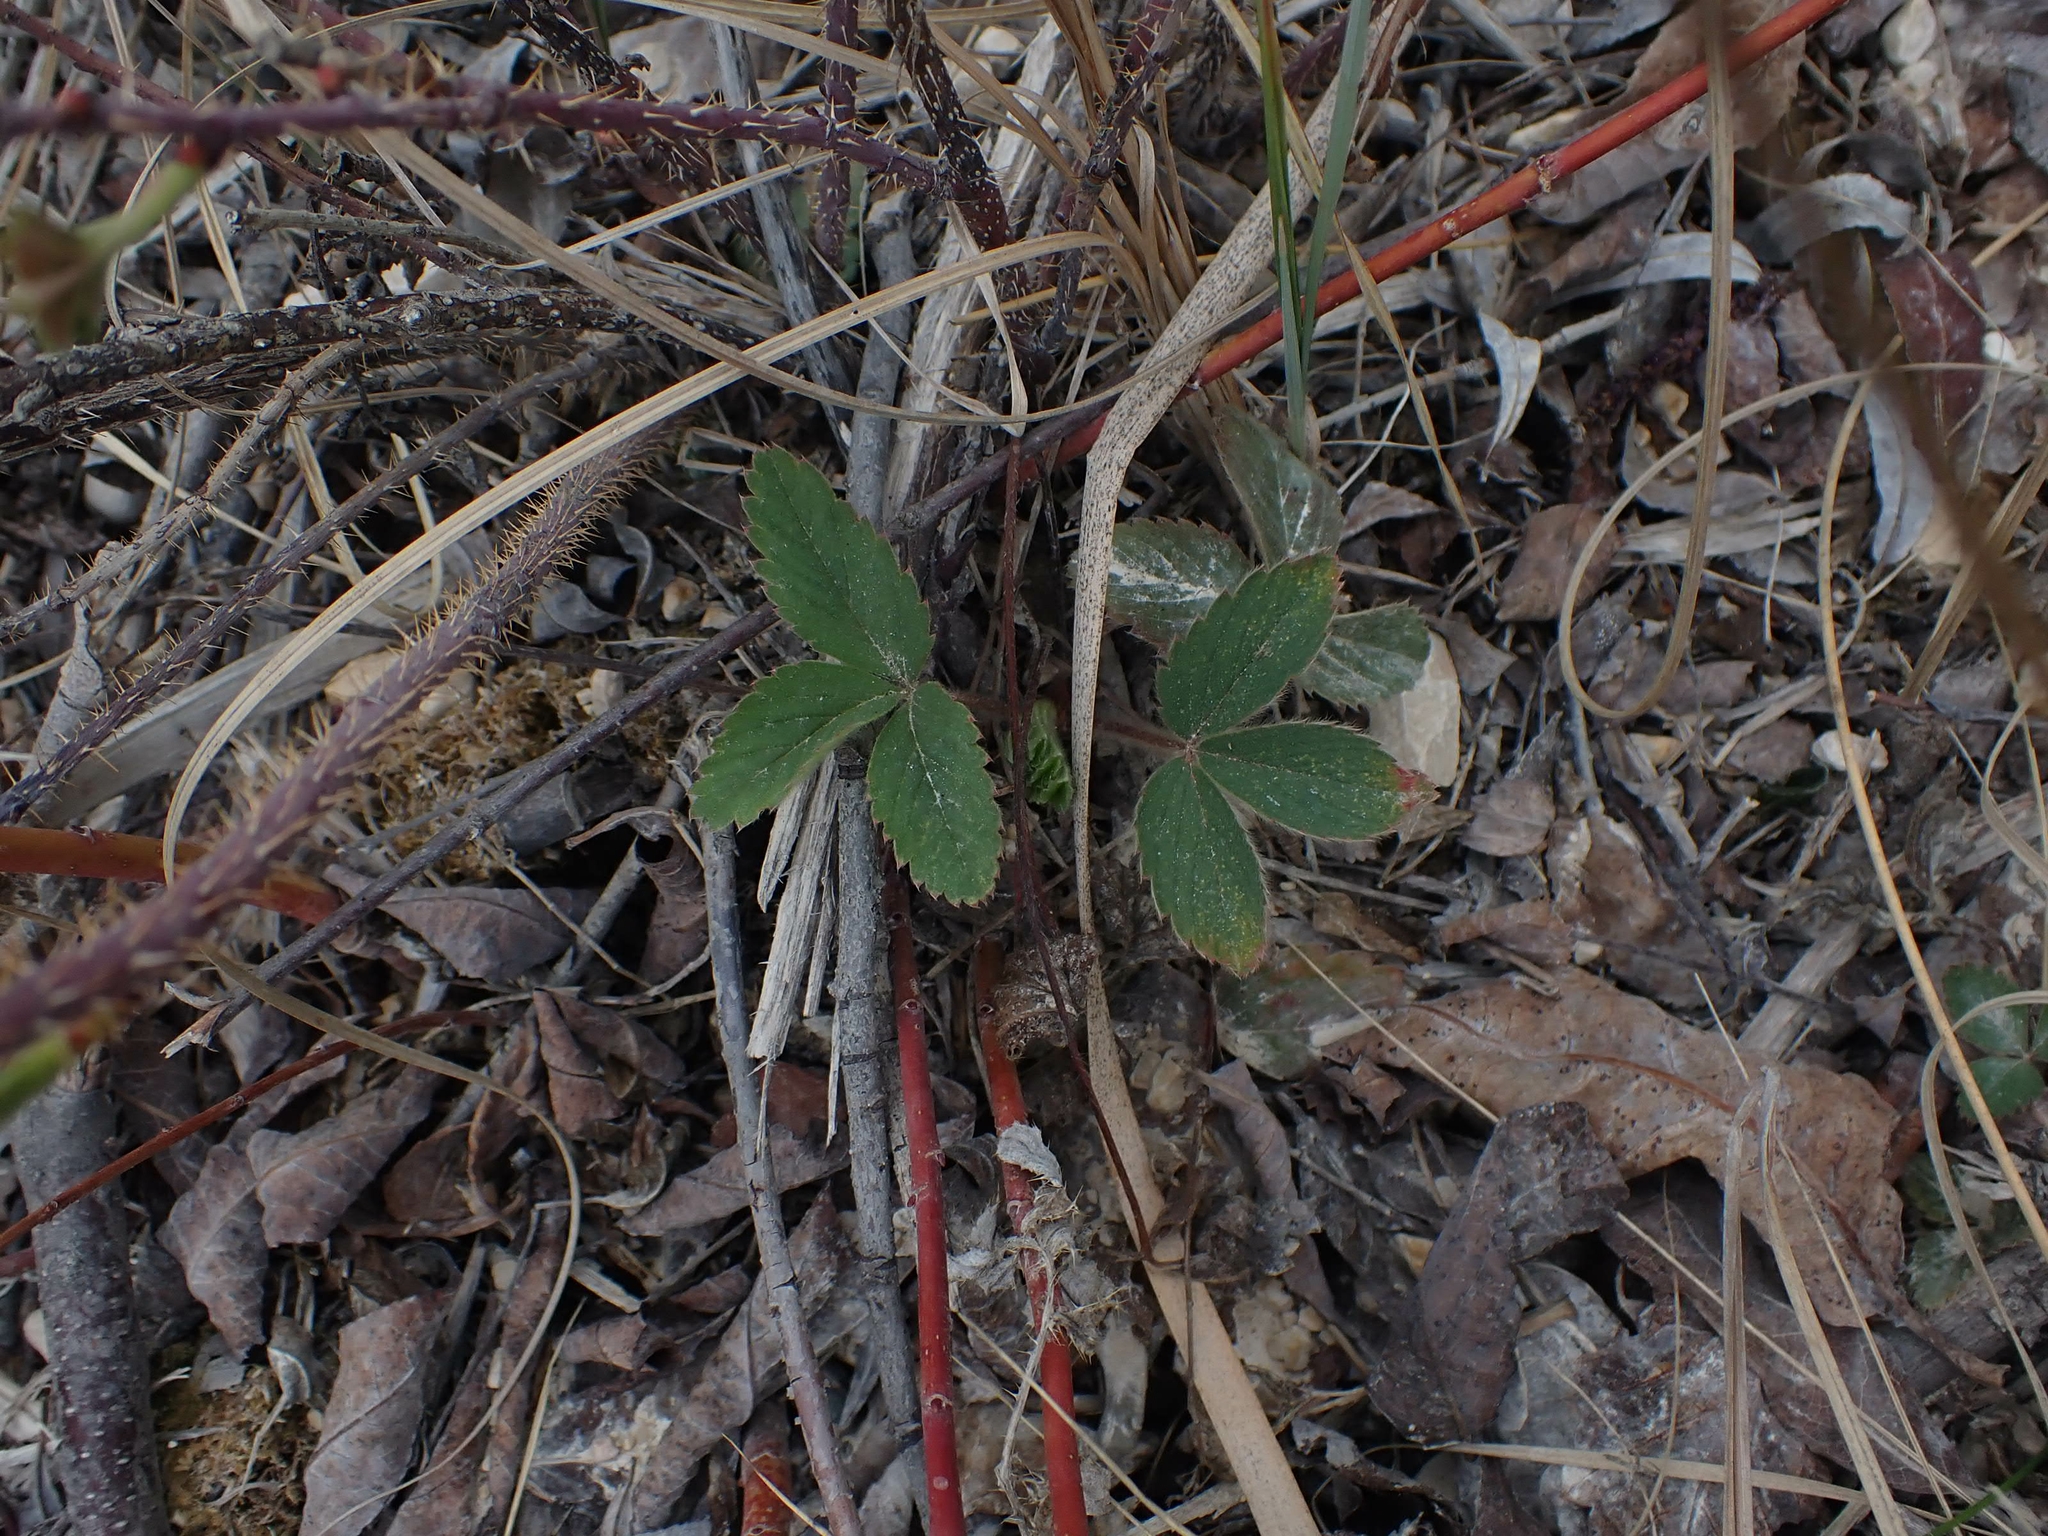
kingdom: Plantae
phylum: Tracheophyta
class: Magnoliopsida
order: Rosales
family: Rosaceae
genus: Fragaria
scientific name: Fragaria virginiana
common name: Thickleaved wild strawberry
